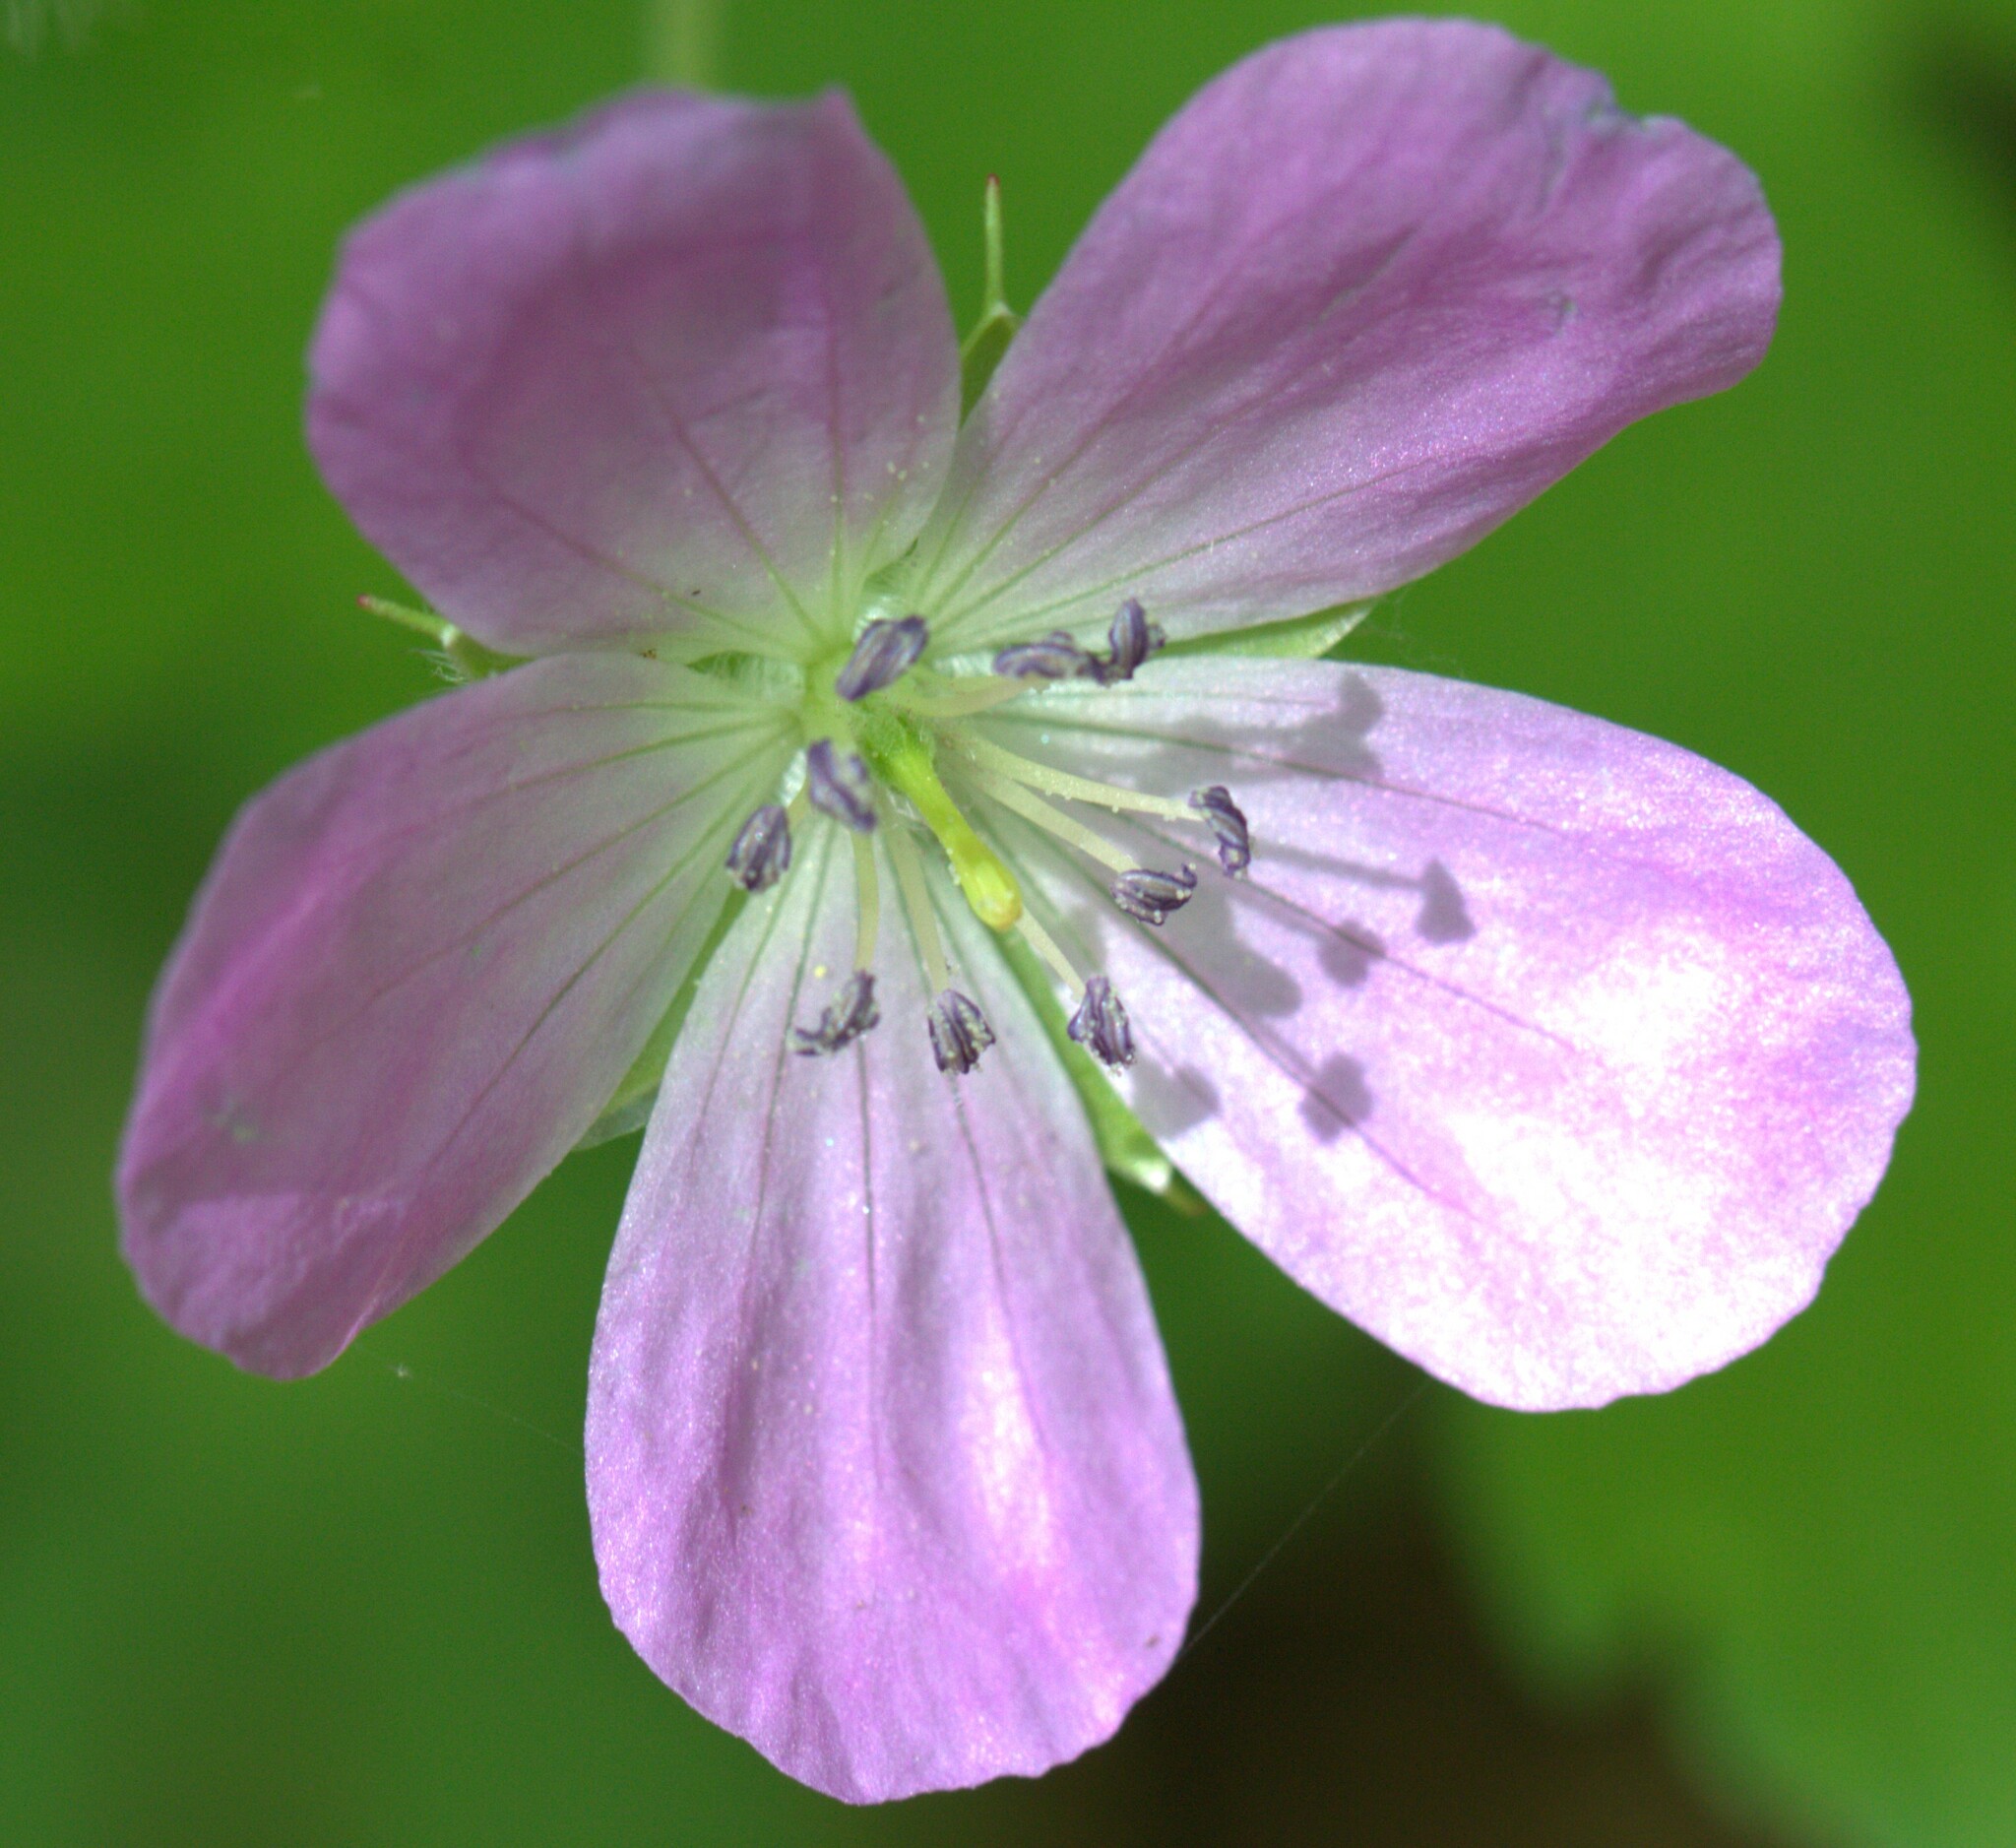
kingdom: Plantae
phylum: Tracheophyta
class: Magnoliopsida
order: Geraniales
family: Geraniaceae
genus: Geranium
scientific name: Geranium maculatum
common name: Spotted geranium
